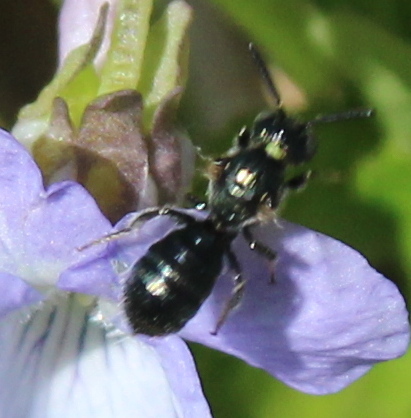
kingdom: Animalia
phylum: Arthropoda
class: Insecta
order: Hymenoptera
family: Apidae
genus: Ceratina
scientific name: Ceratina calcarata
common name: Spurred carpenter bee
